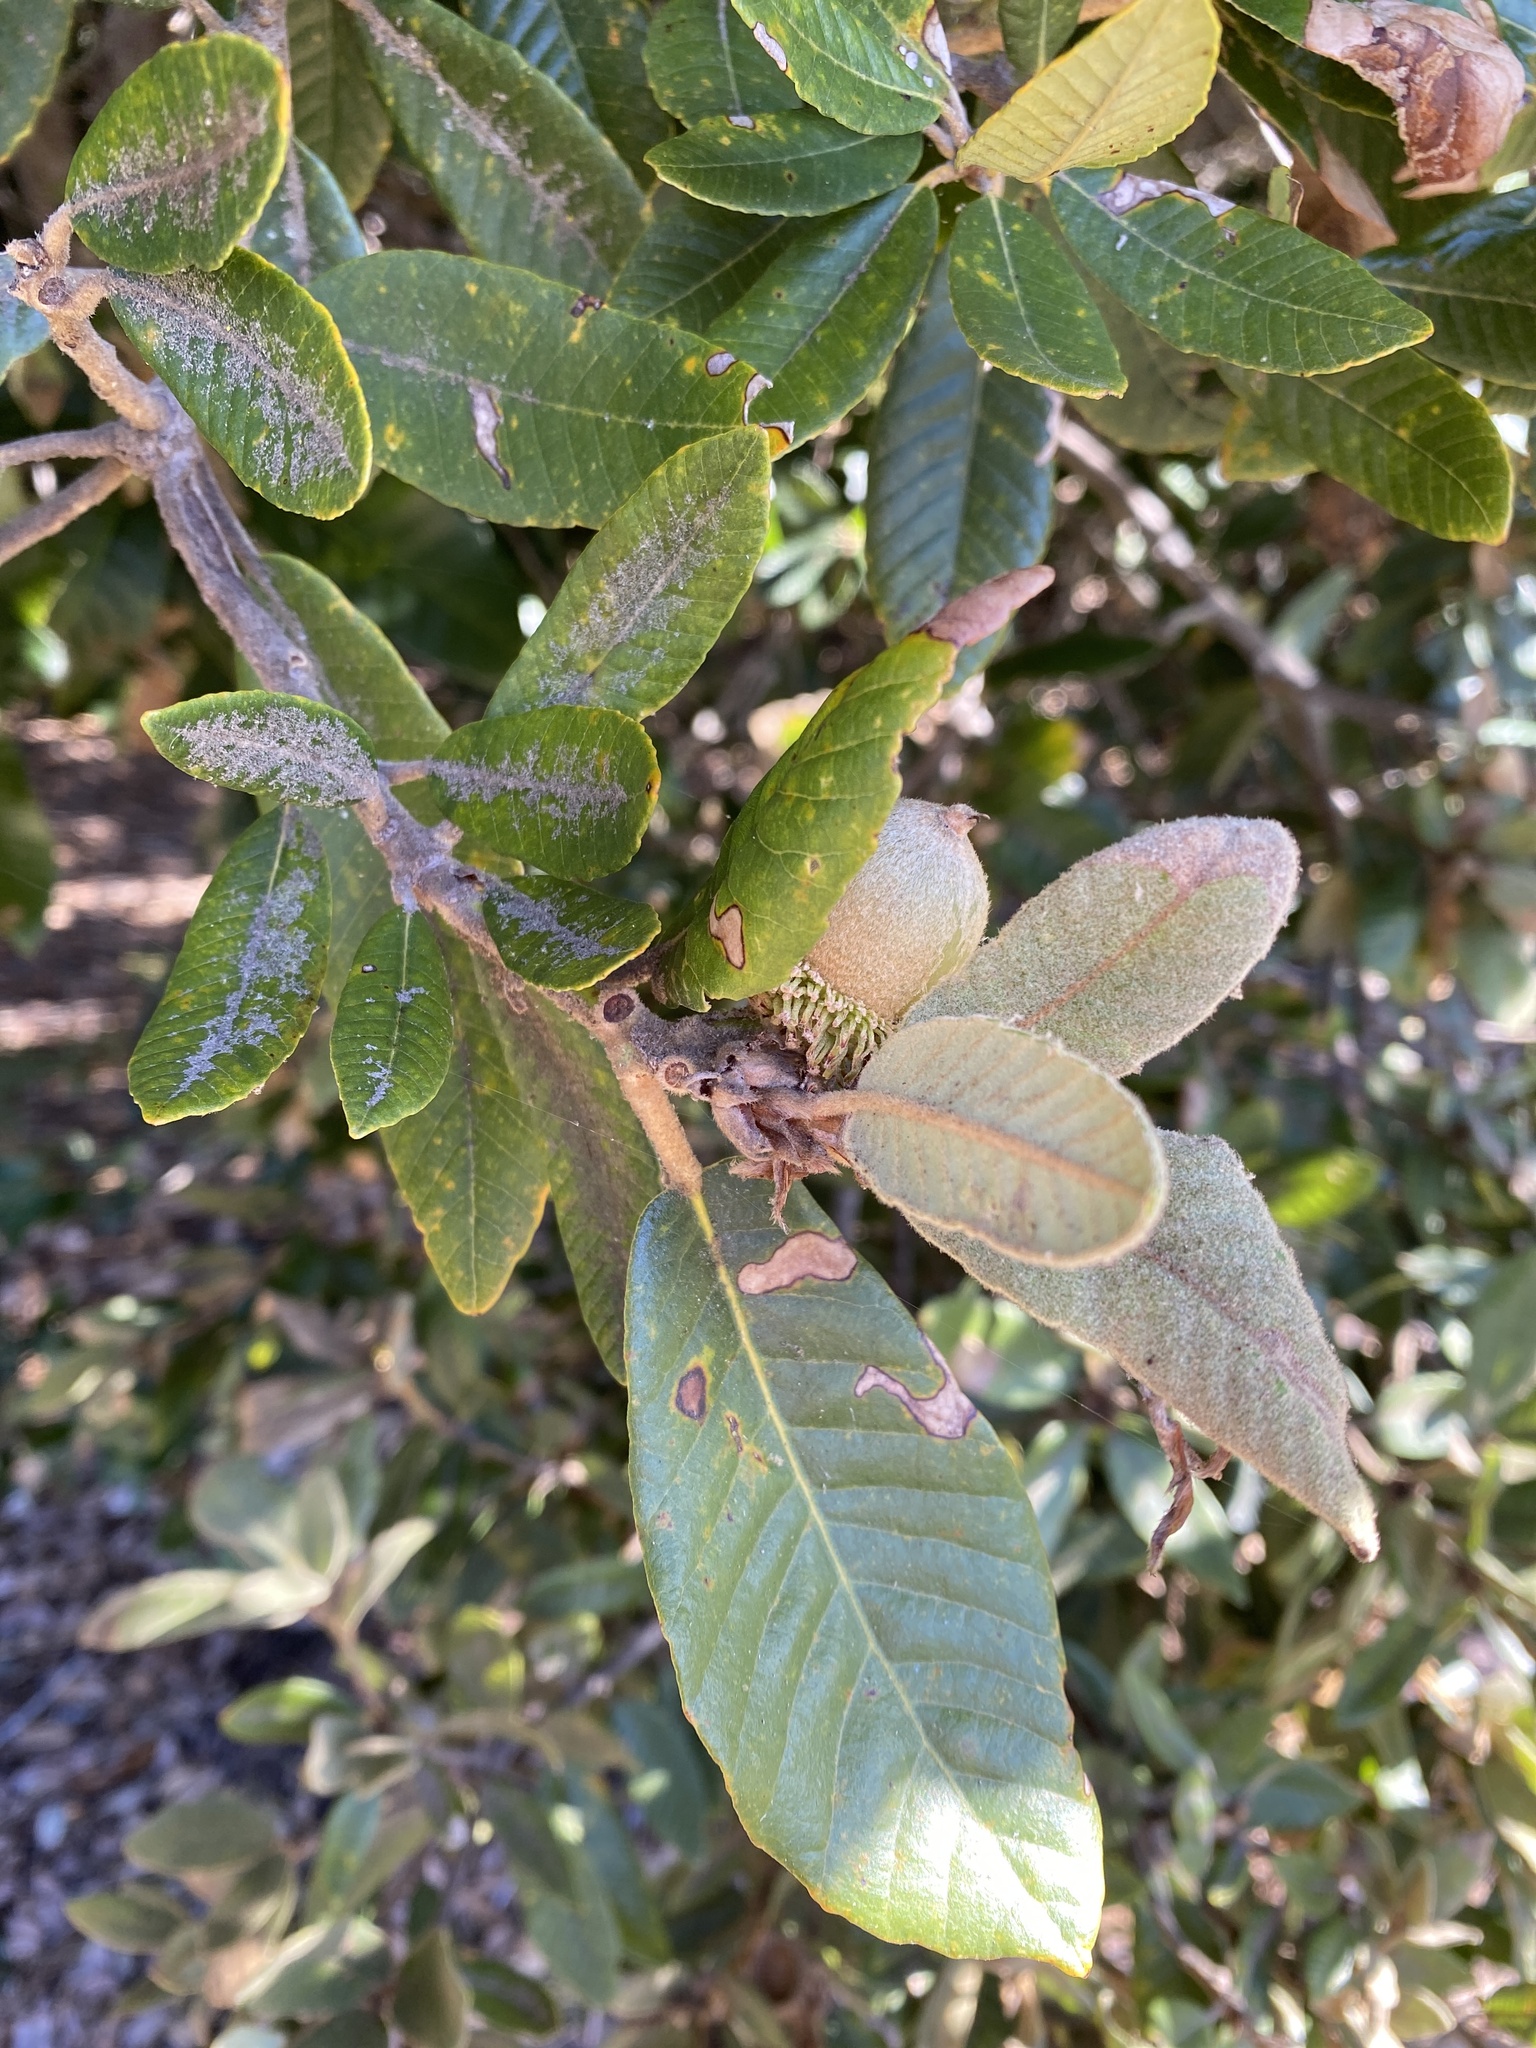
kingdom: Plantae
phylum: Tracheophyta
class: Magnoliopsida
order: Fagales
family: Fagaceae
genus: Notholithocarpus
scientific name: Notholithocarpus densiflorus
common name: Tan bark oak
